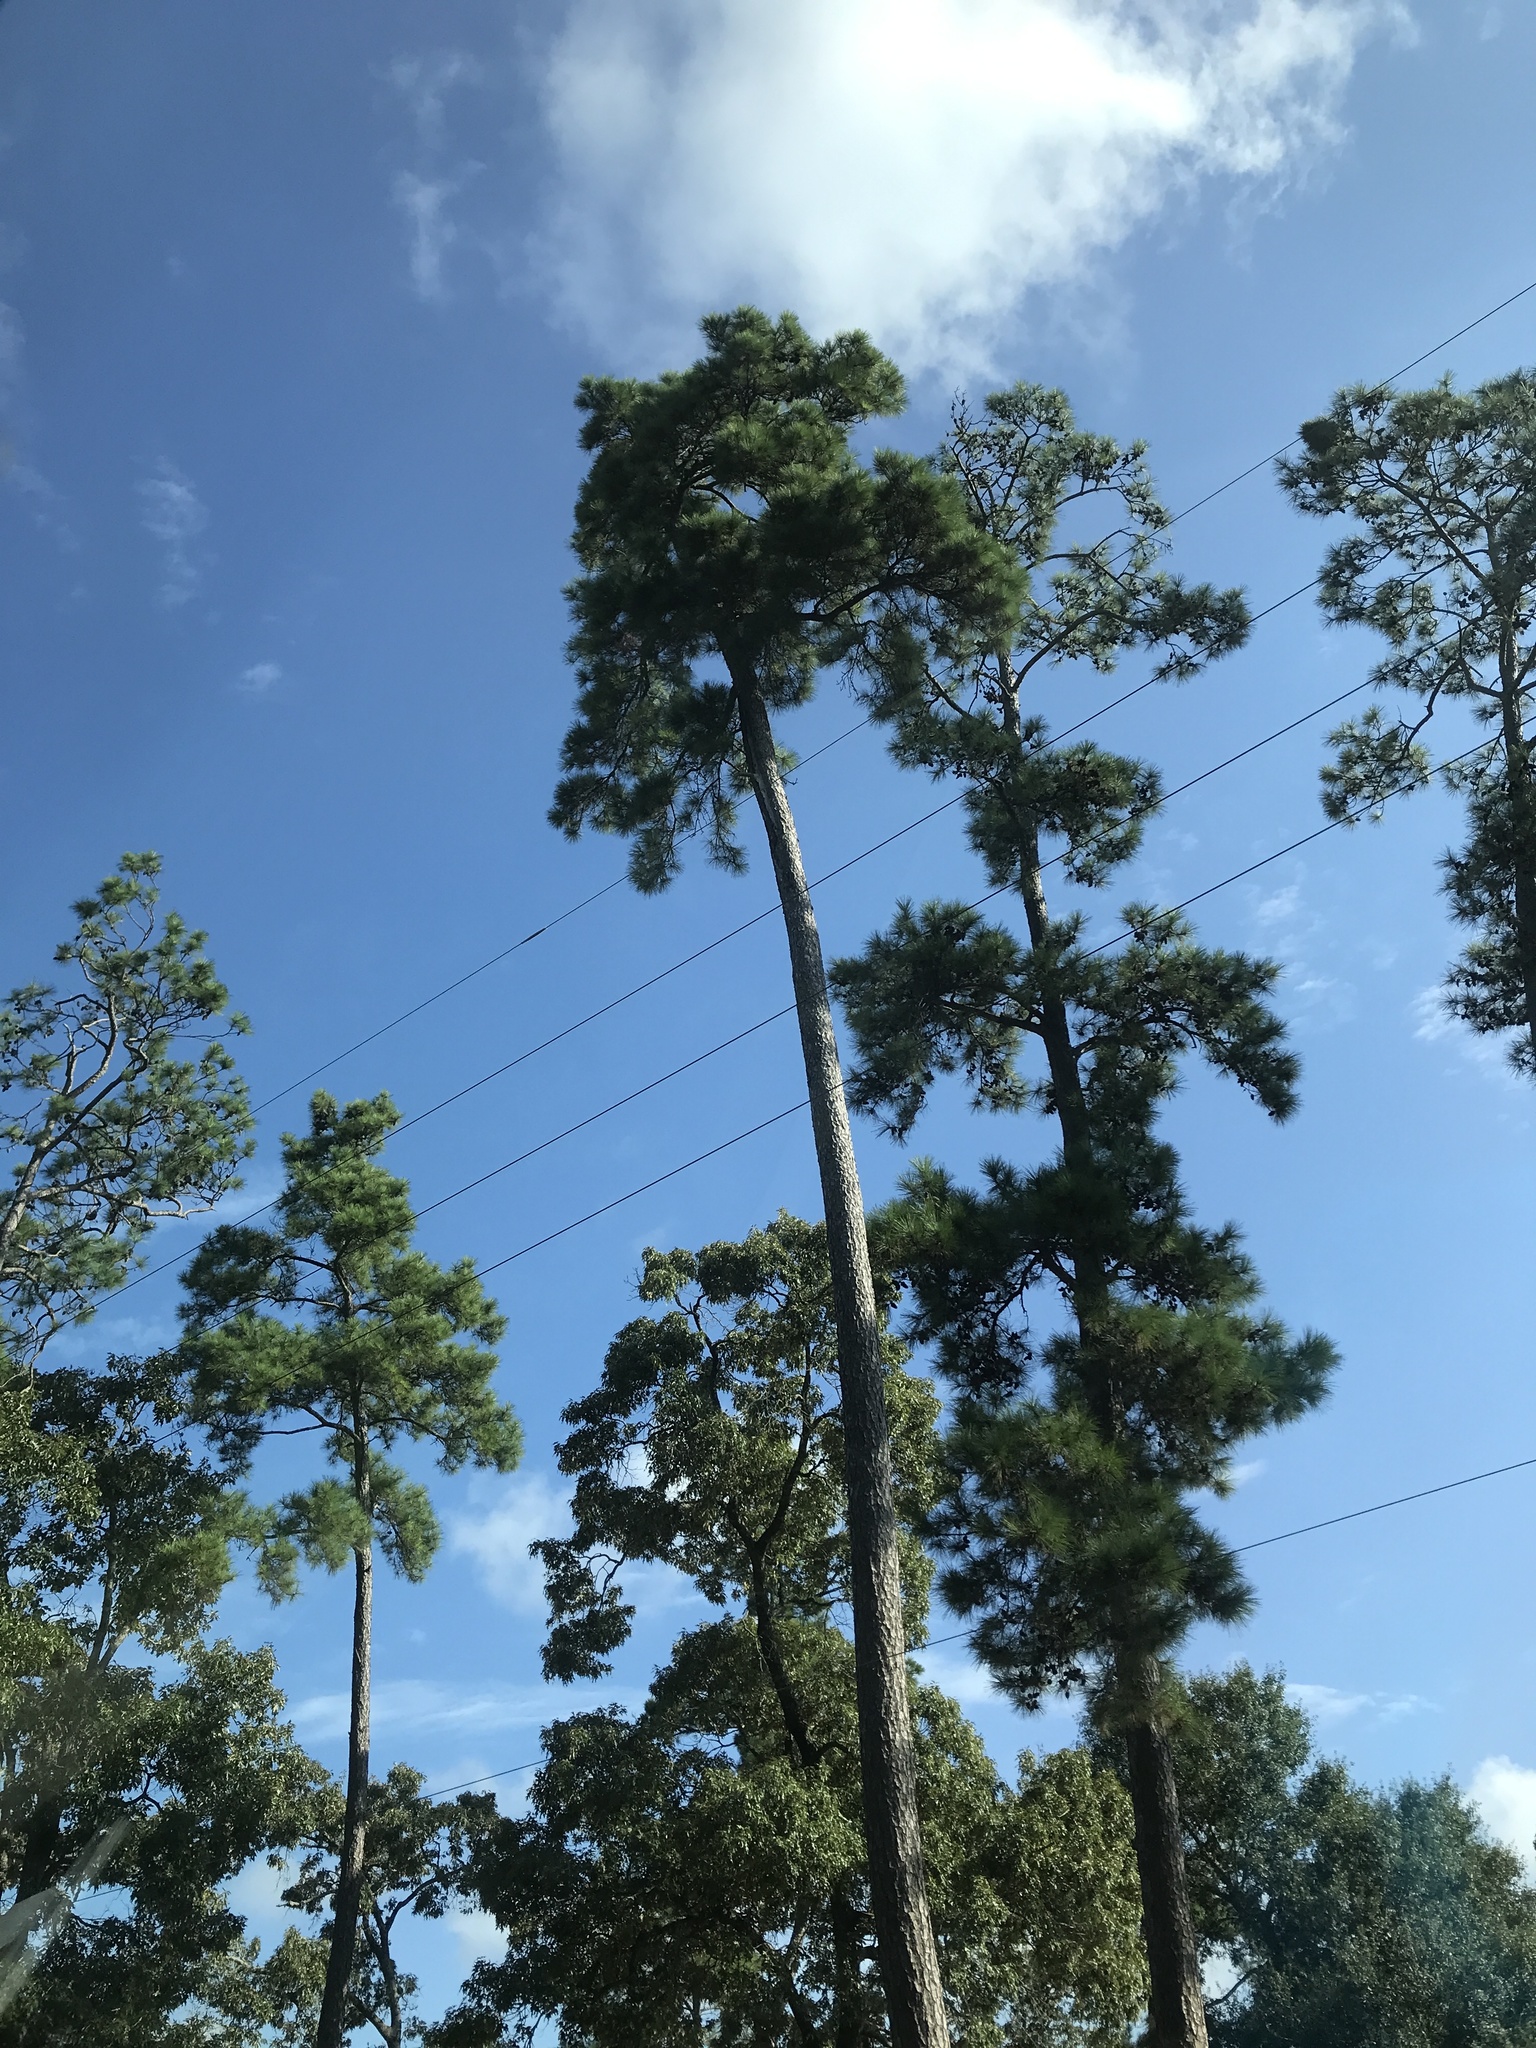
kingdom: Plantae
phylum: Tracheophyta
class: Pinopsida
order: Pinales
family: Pinaceae
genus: Pinus
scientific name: Pinus taeda
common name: Loblolly pine
